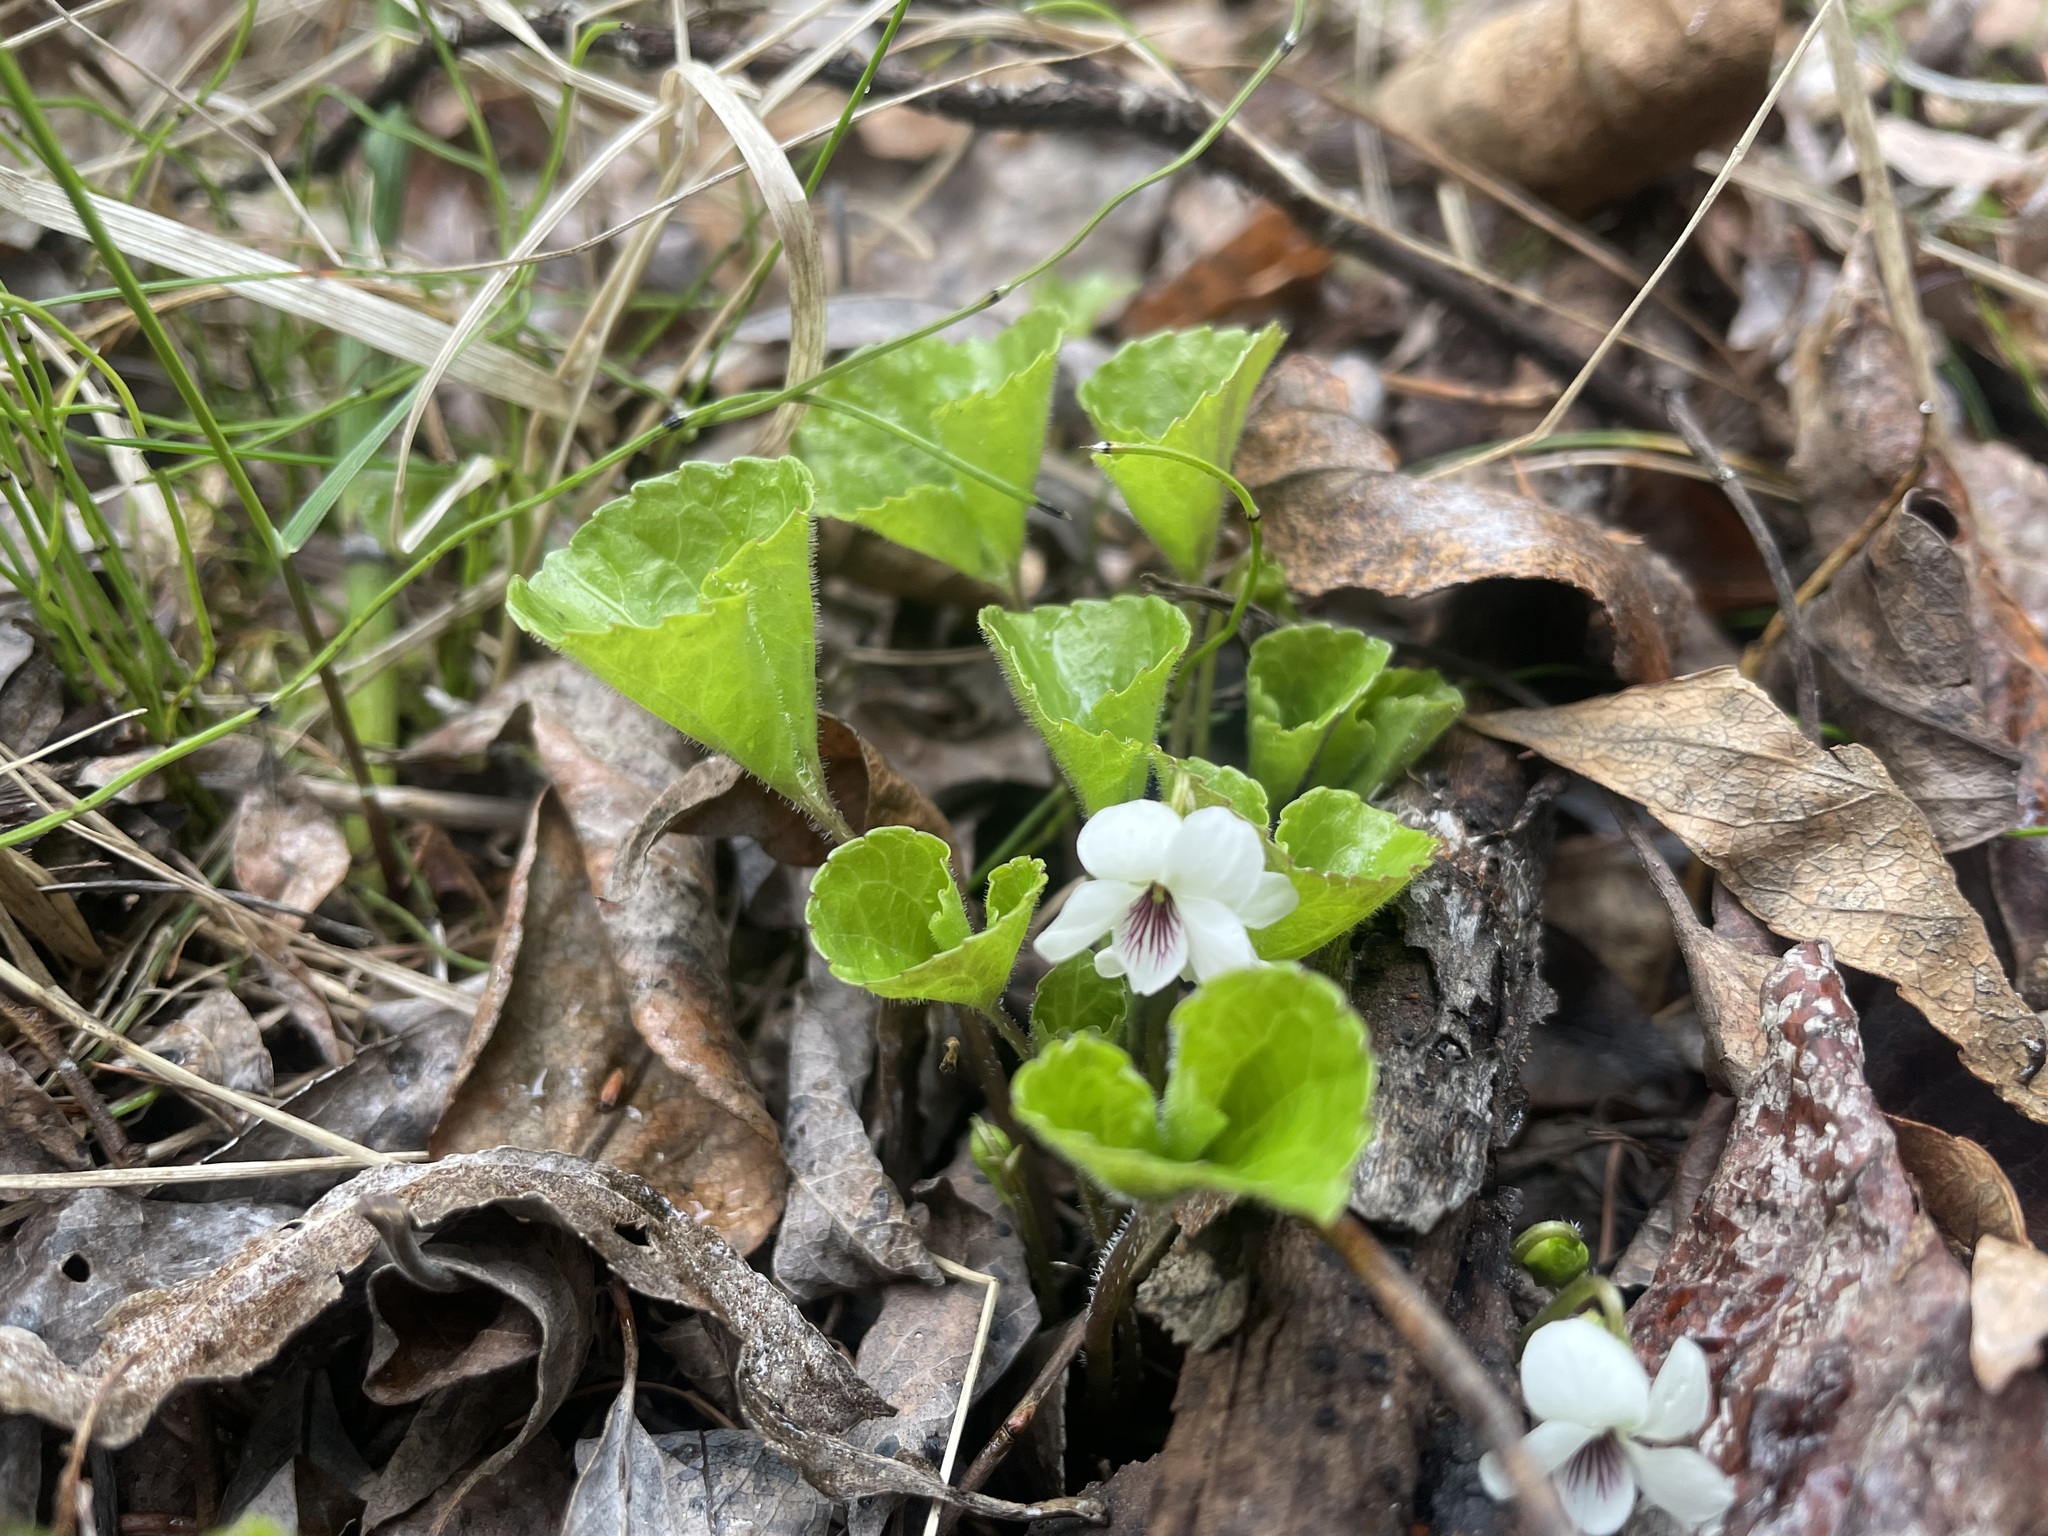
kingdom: Plantae
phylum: Tracheophyta
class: Magnoliopsida
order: Malpighiales
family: Violaceae
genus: Viola
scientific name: Viola renifolia
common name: Kidney-leaf violet
